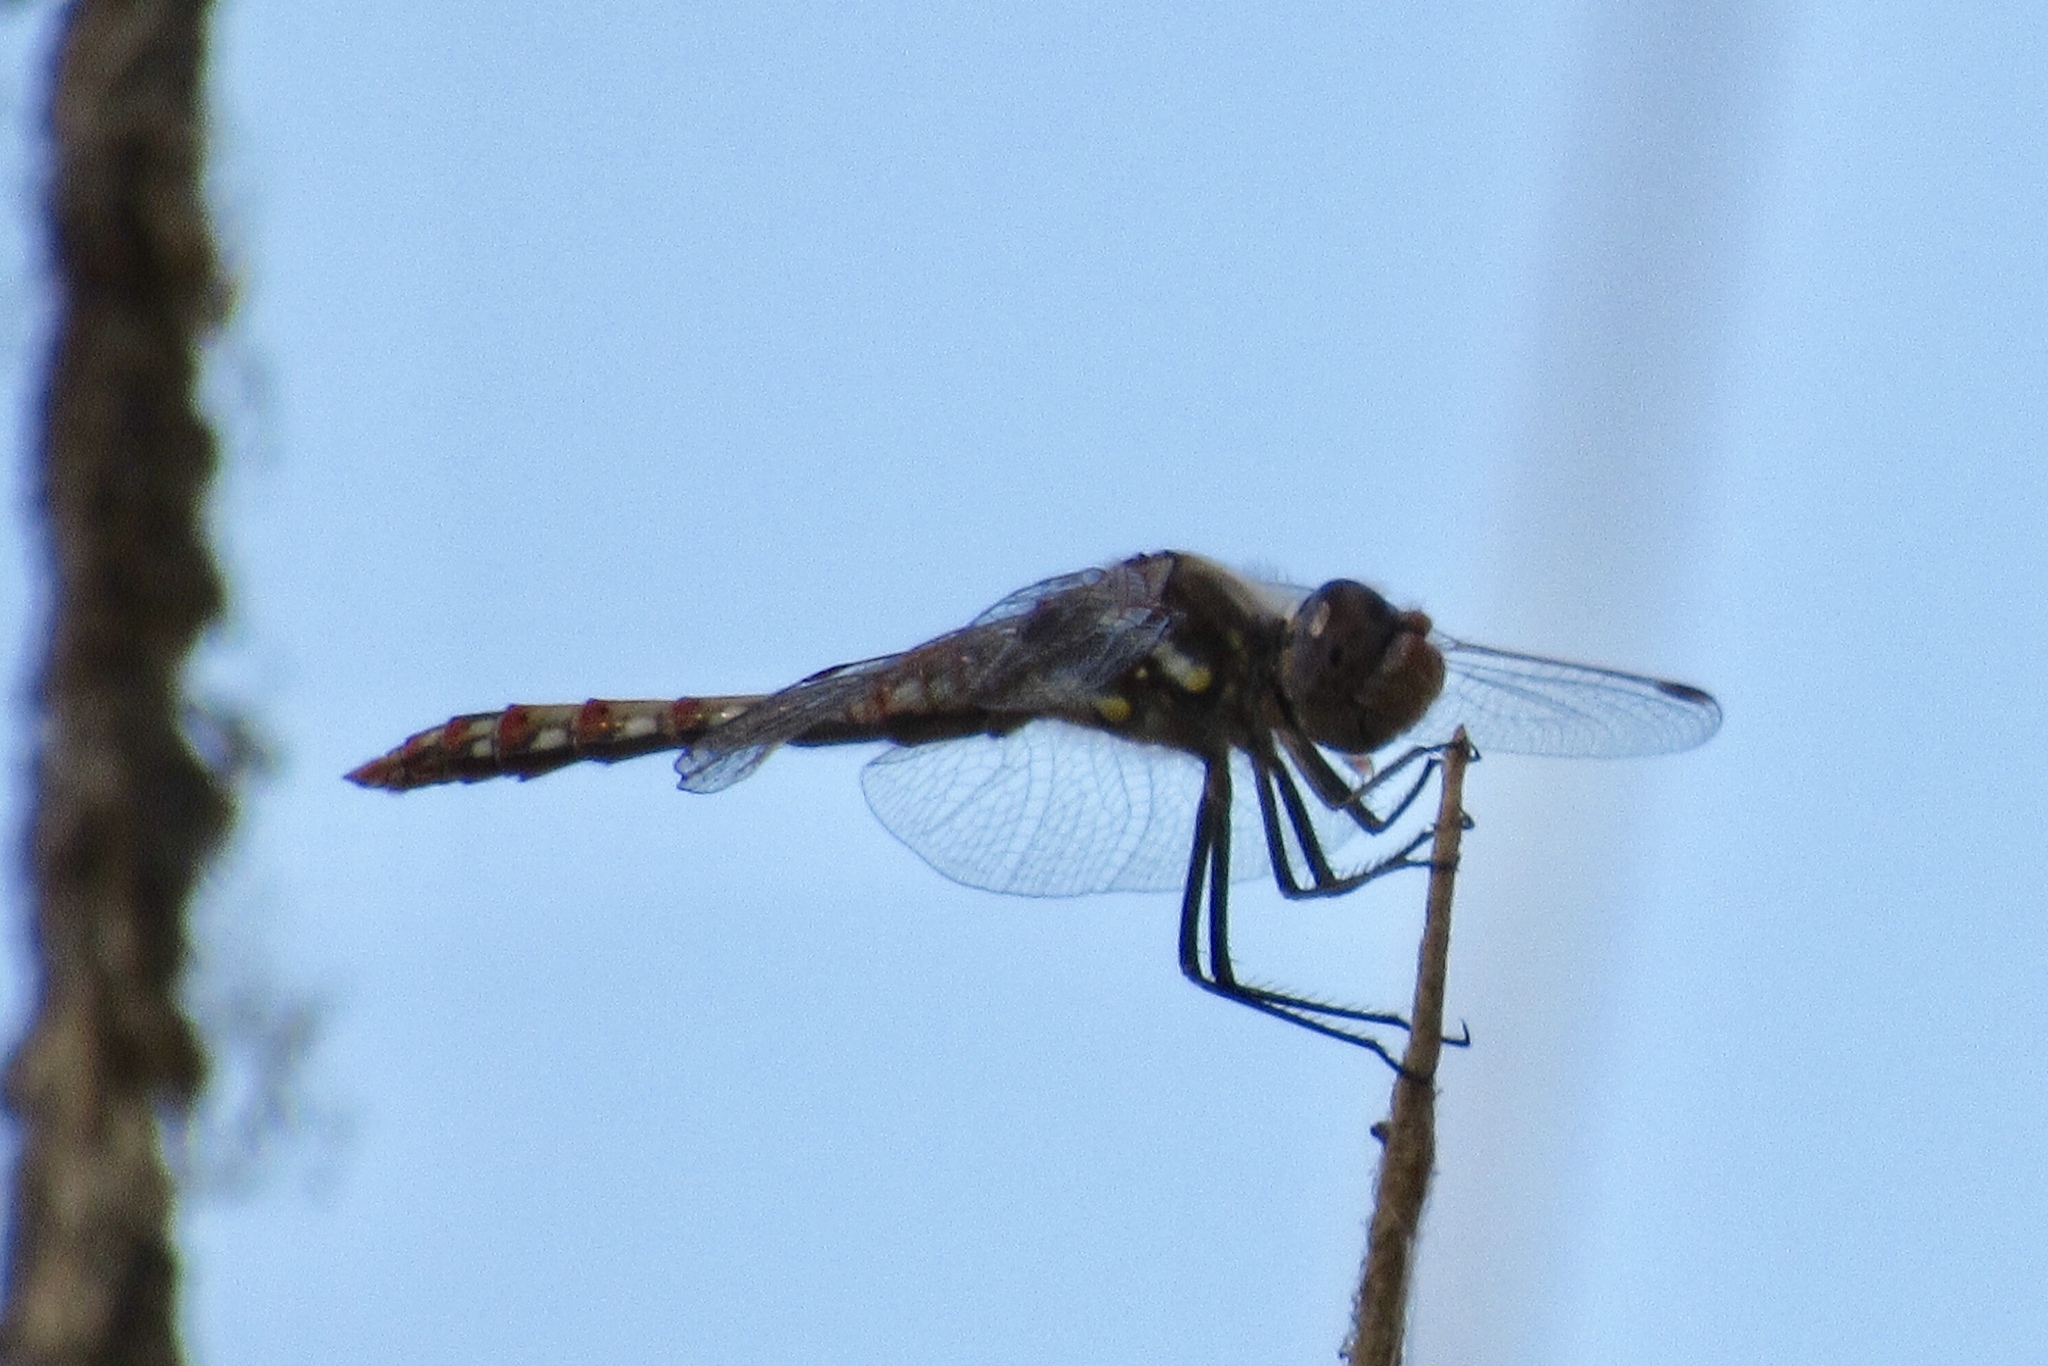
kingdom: Animalia
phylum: Arthropoda
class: Insecta
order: Odonata
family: Libellulidae
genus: Sympetrum
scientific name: Sympetrum corruptum
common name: Variegated meadowhawk
